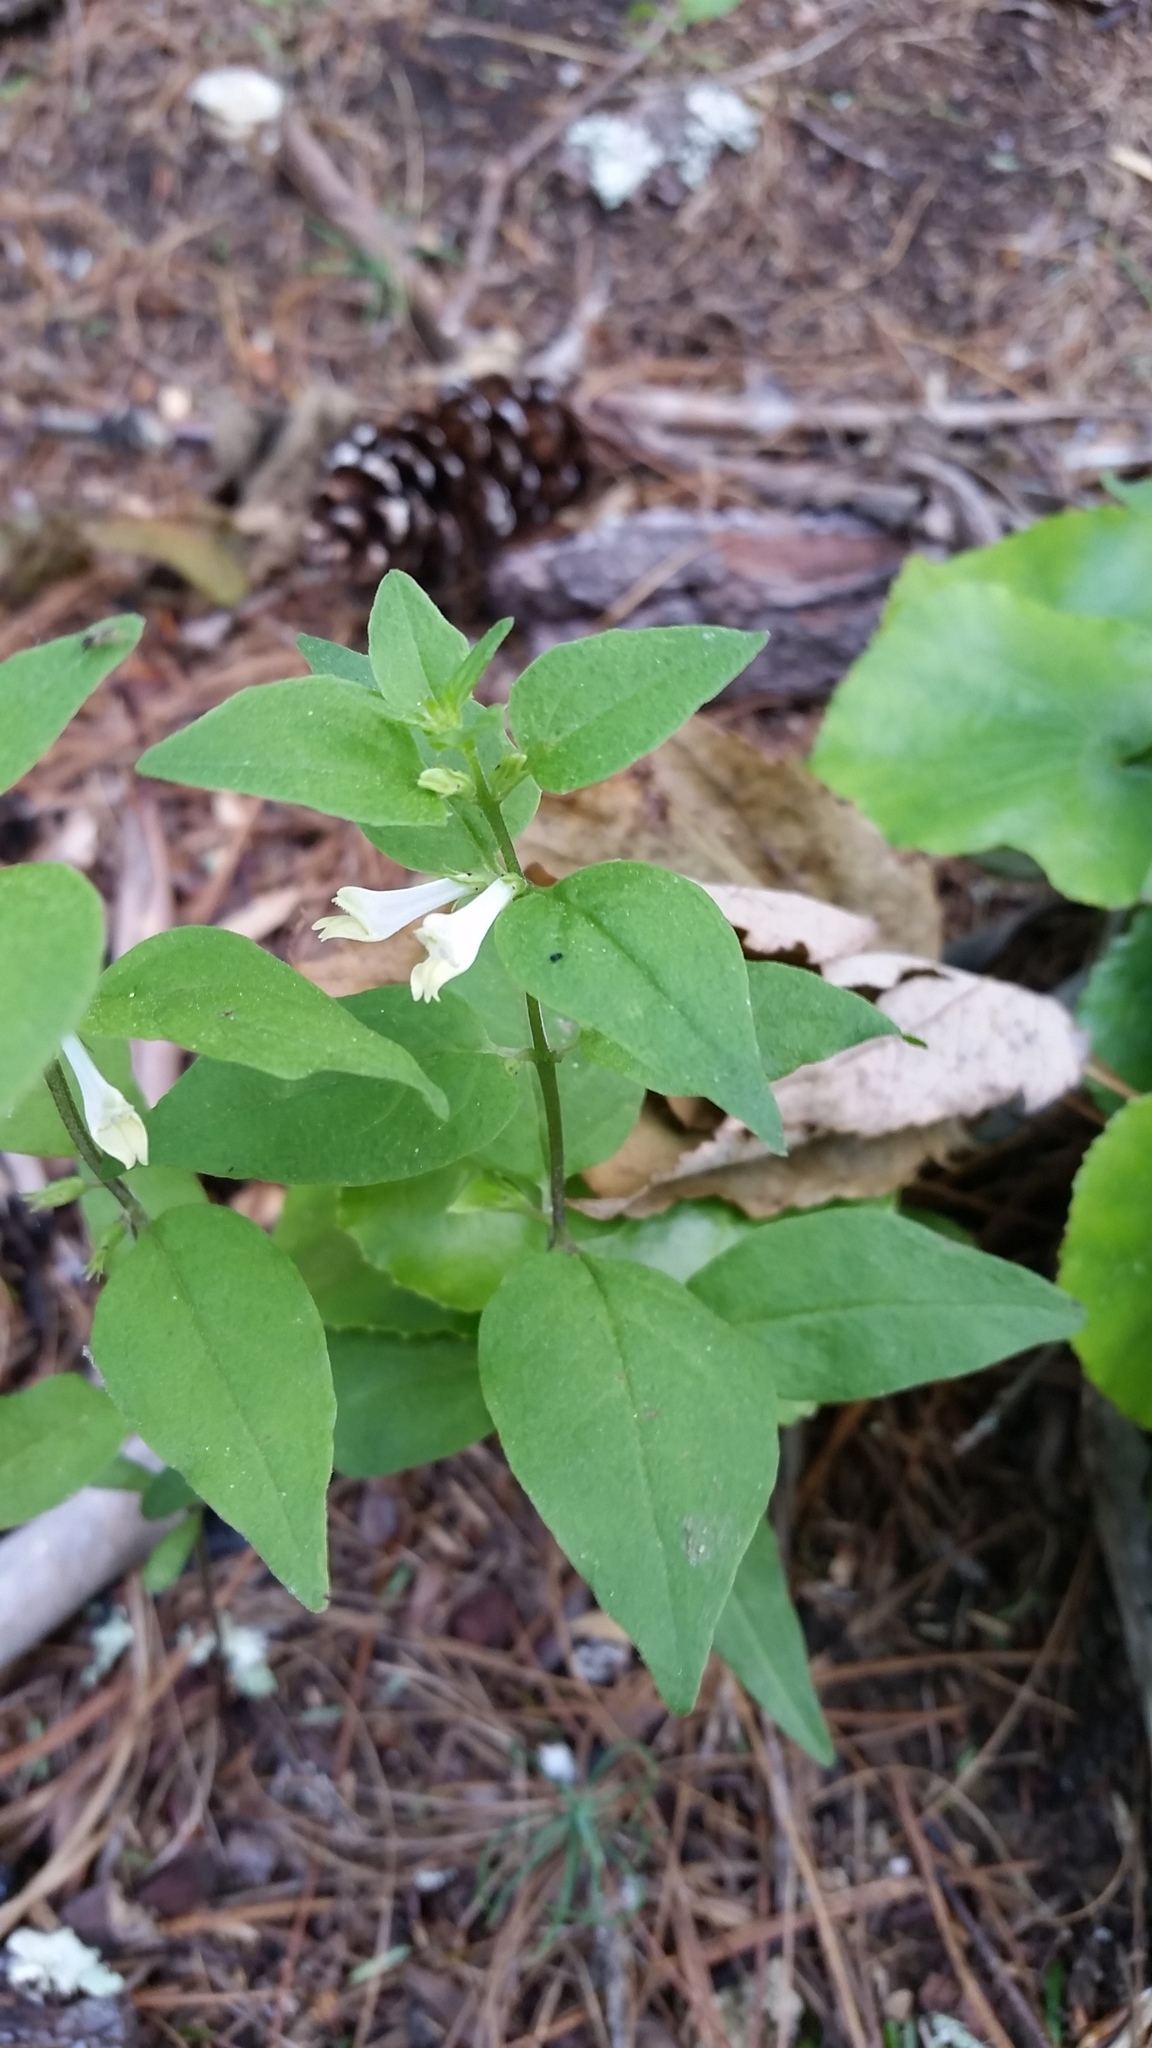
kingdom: Plantae
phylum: Tracheophyta
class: Magnoliopsida
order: Lamiales
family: Orobanchaceae
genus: Melampyrum
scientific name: Melampyrum lineare
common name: American cow-wheat
